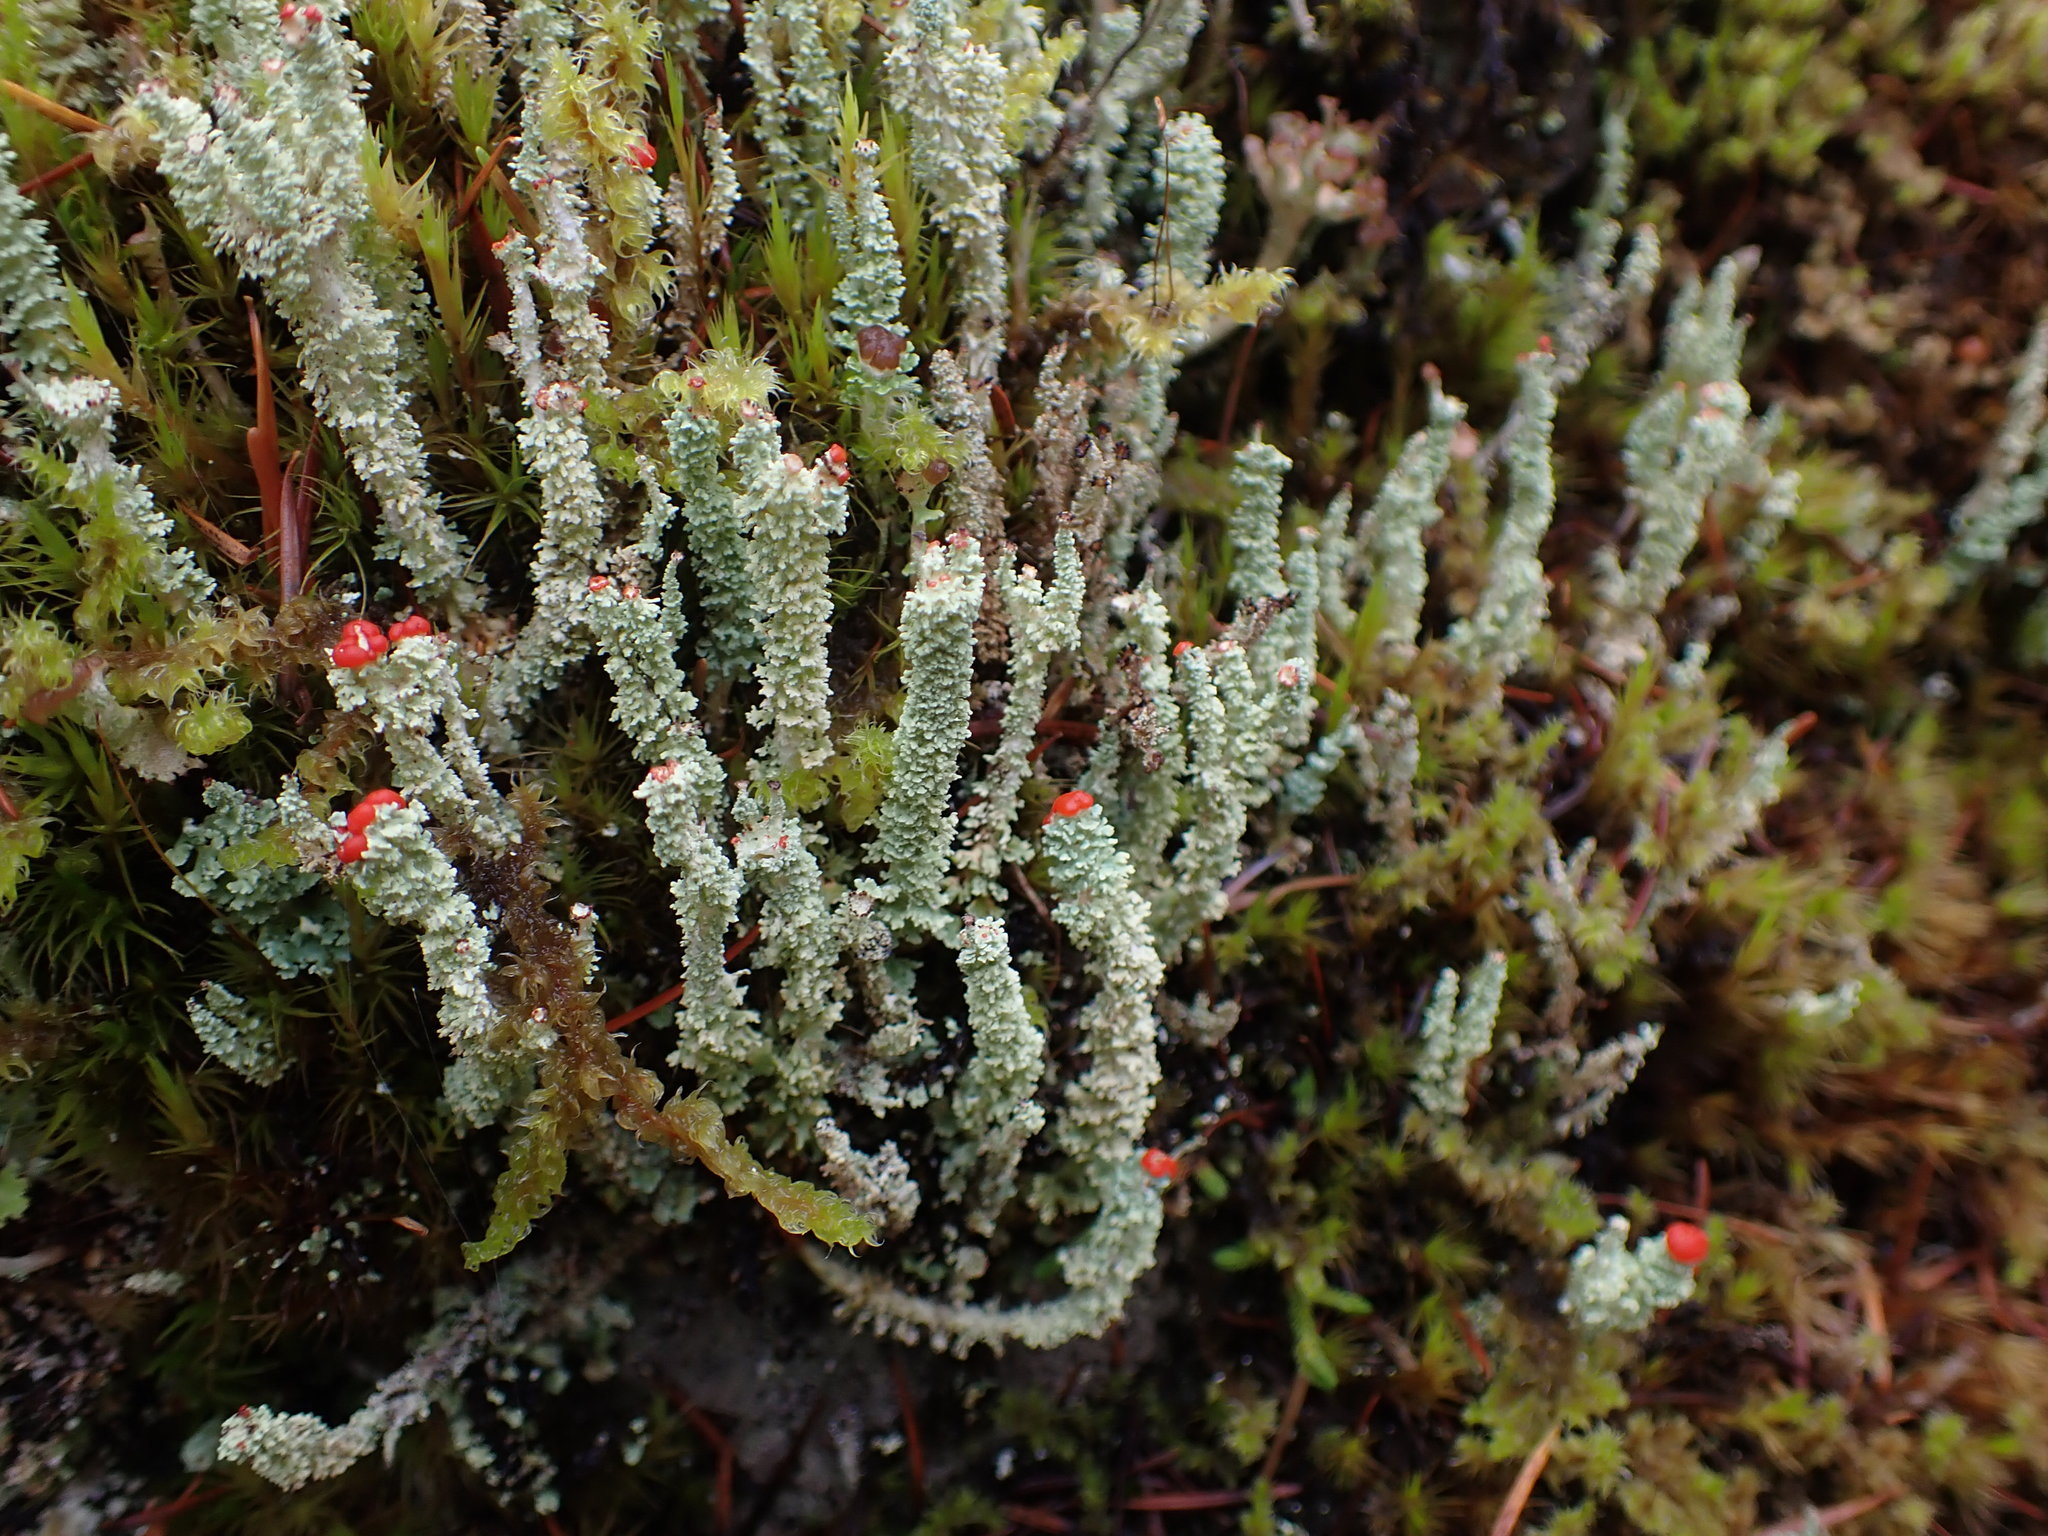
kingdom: Fungi
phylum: Ascomycota
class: Lecanoromycetes
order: Lecanorales
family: Cladoniaceae
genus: Cladonia
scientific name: Cladonia bellidiflora
